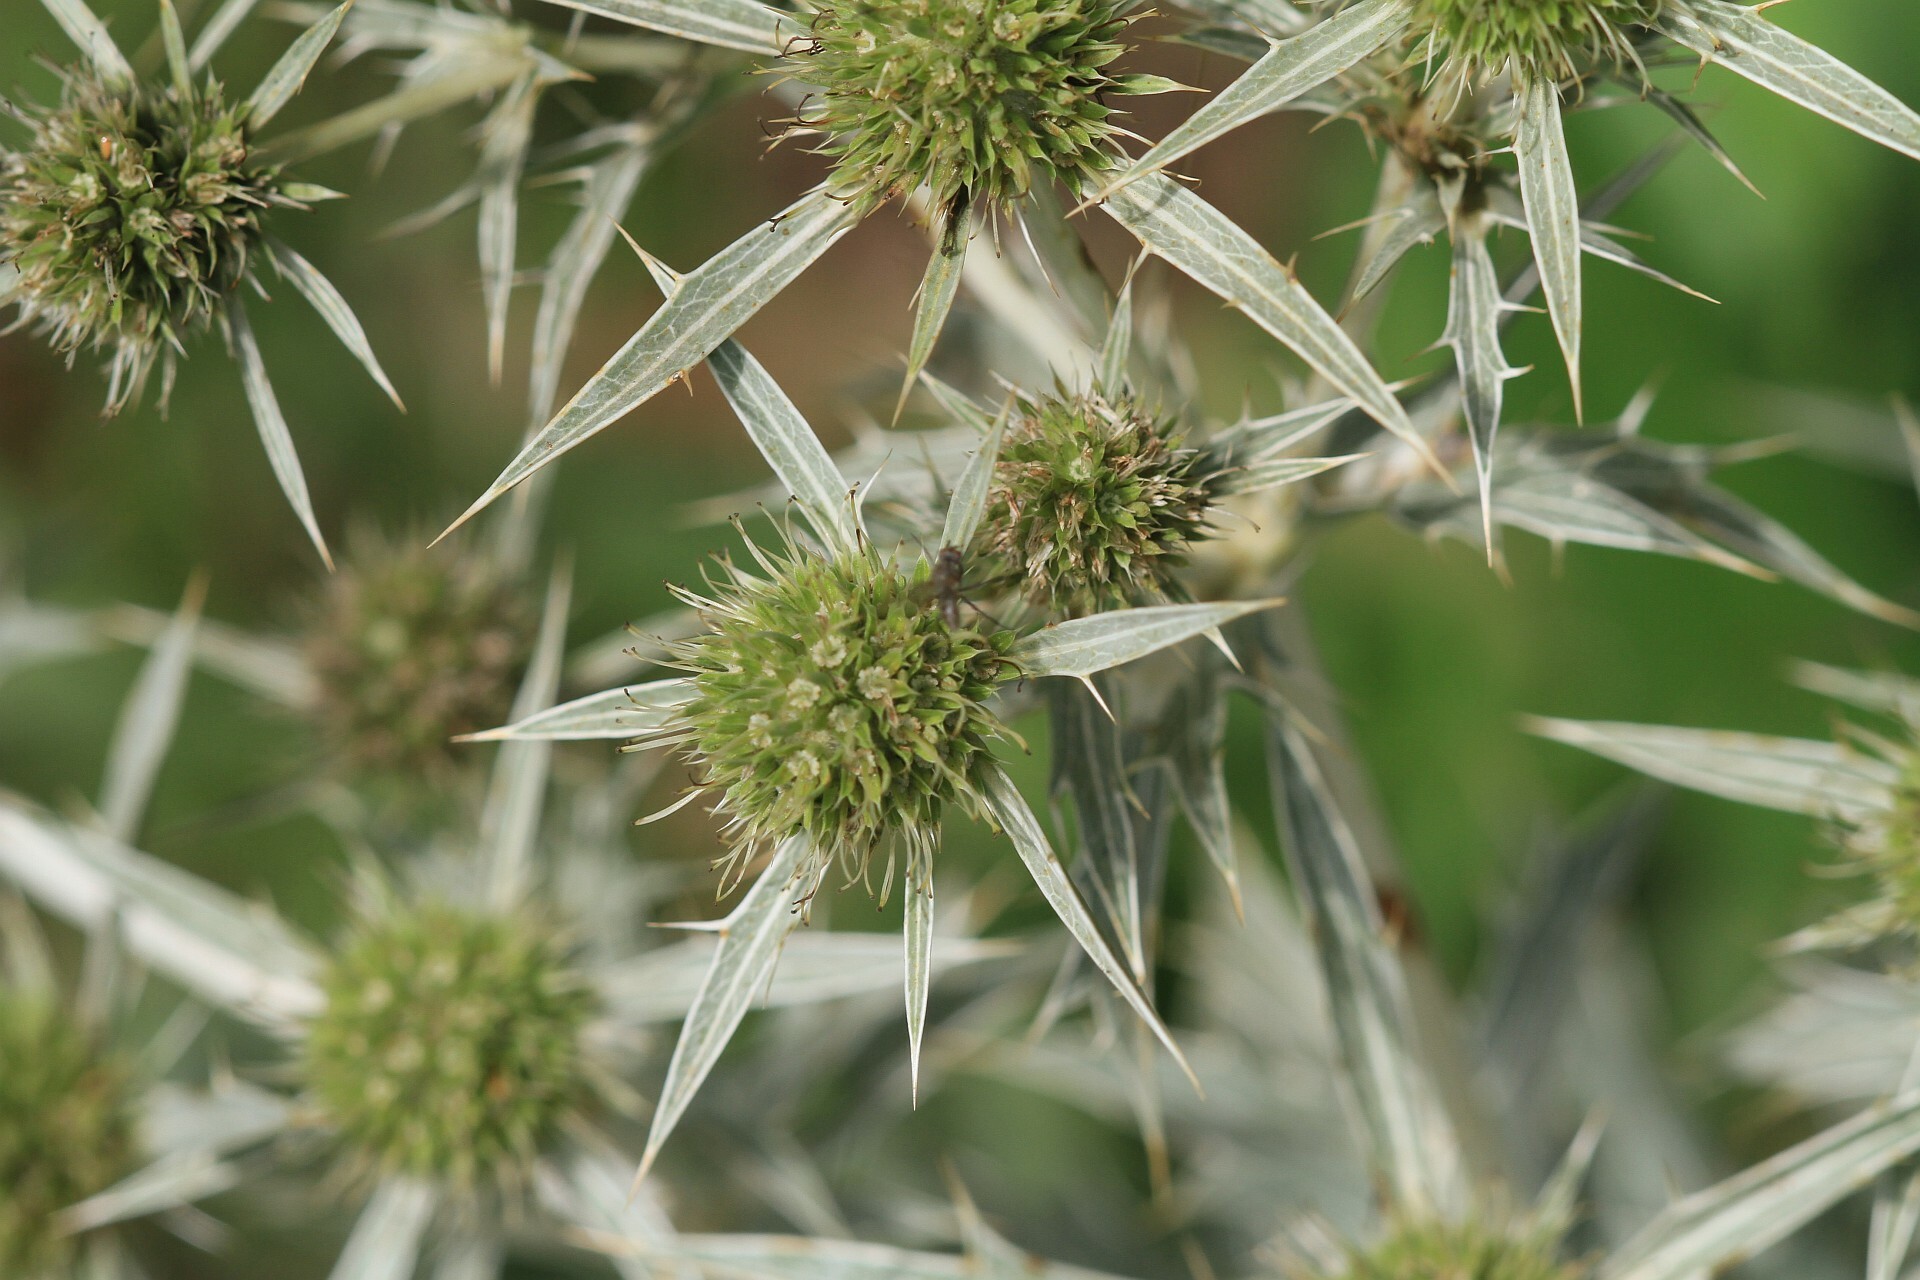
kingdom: Plantae
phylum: Tracheophyta
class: Magnoliopsida
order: Apiales
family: Apiaceae
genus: Eryngium
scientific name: Eryngium campestre
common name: Field eryngo
